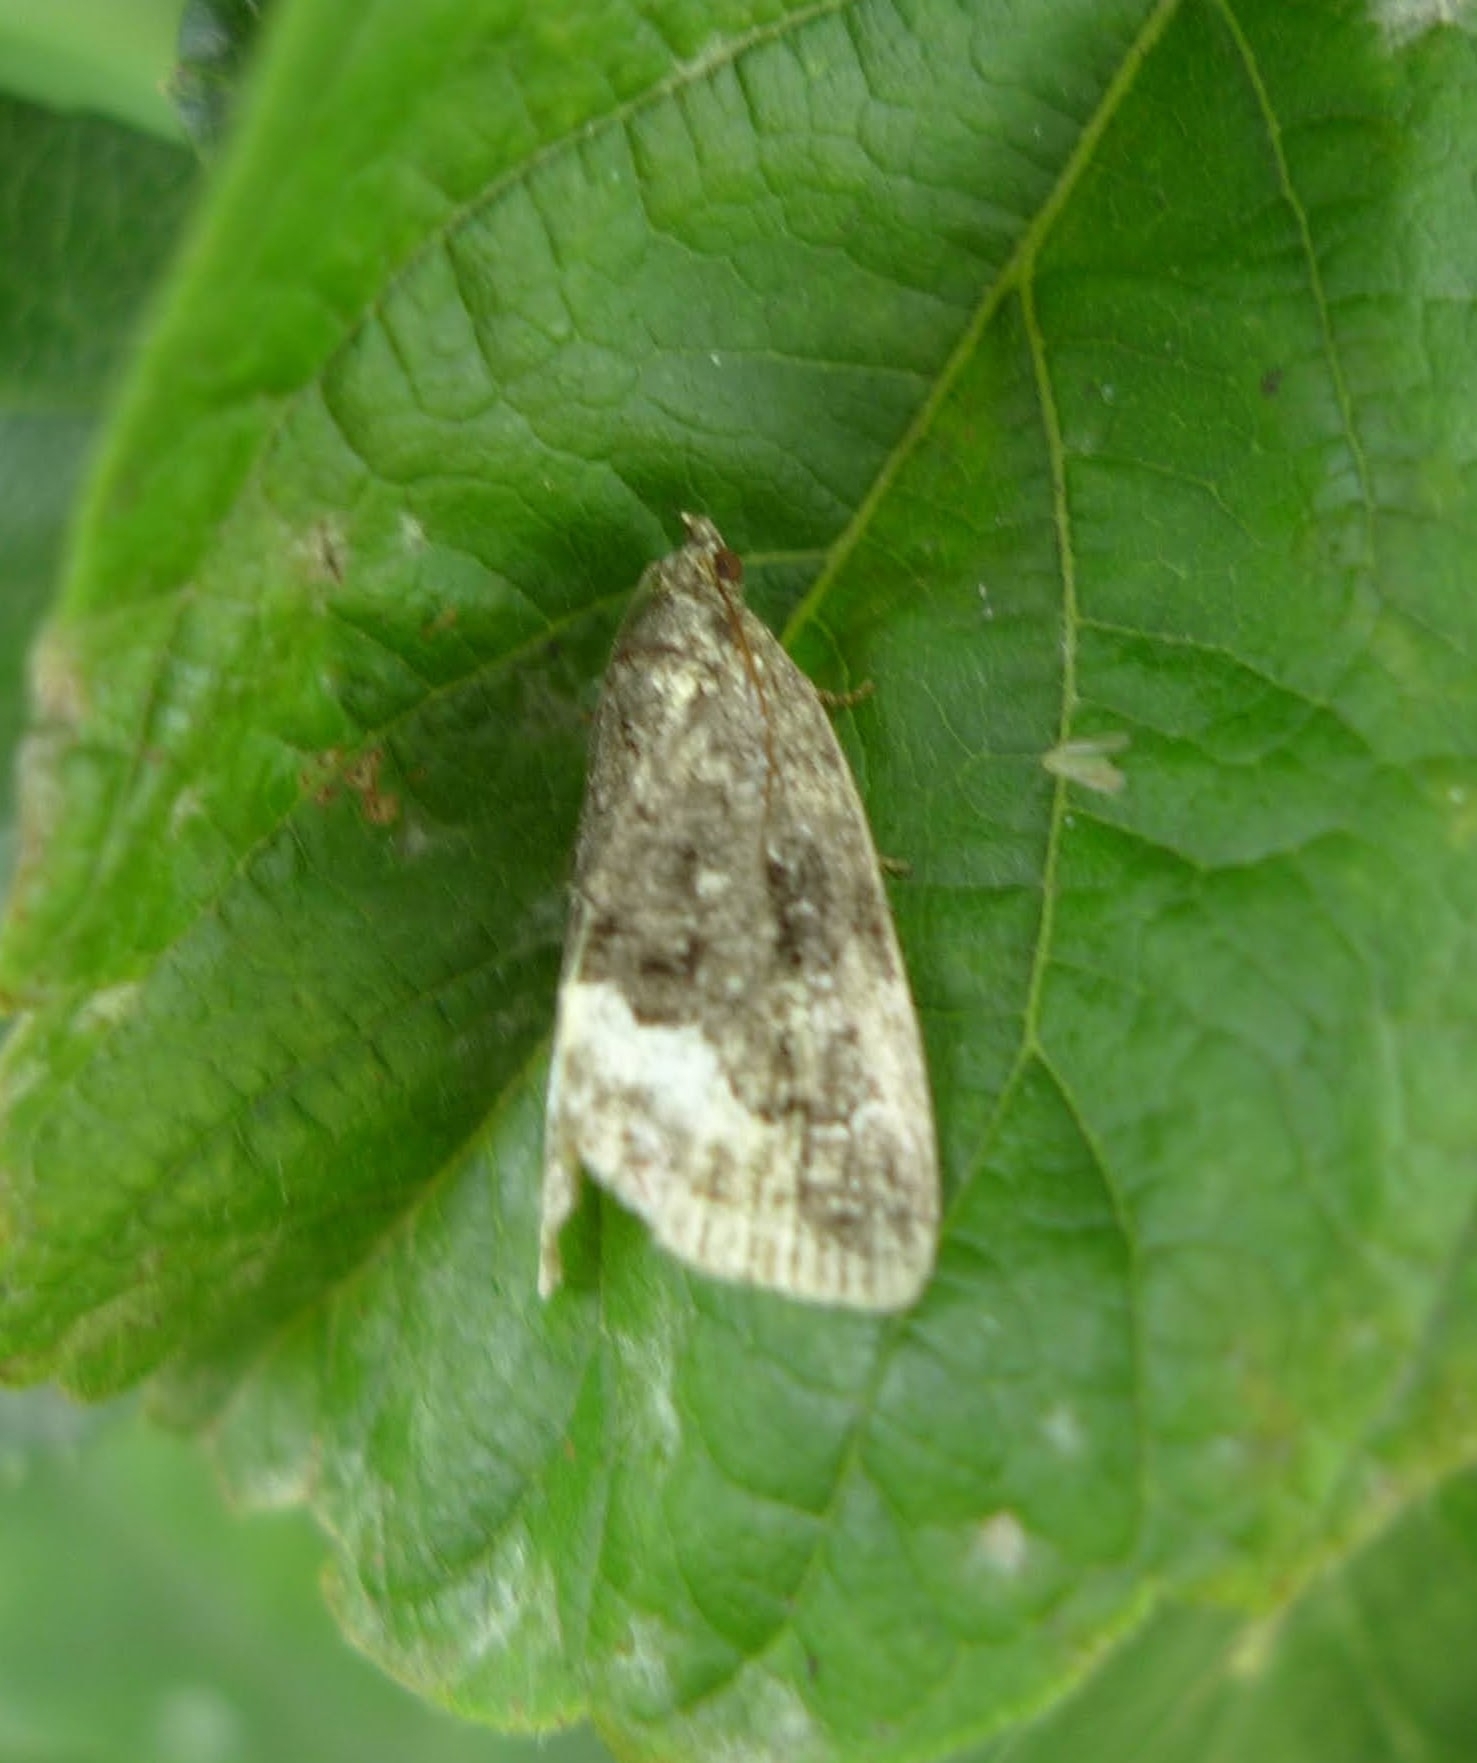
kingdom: Animalia
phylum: Arthropoda
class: Insecta
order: Lepidoptera
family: Noctuidae
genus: Deltote
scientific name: Deltote pygarga
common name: Marbled white spot
